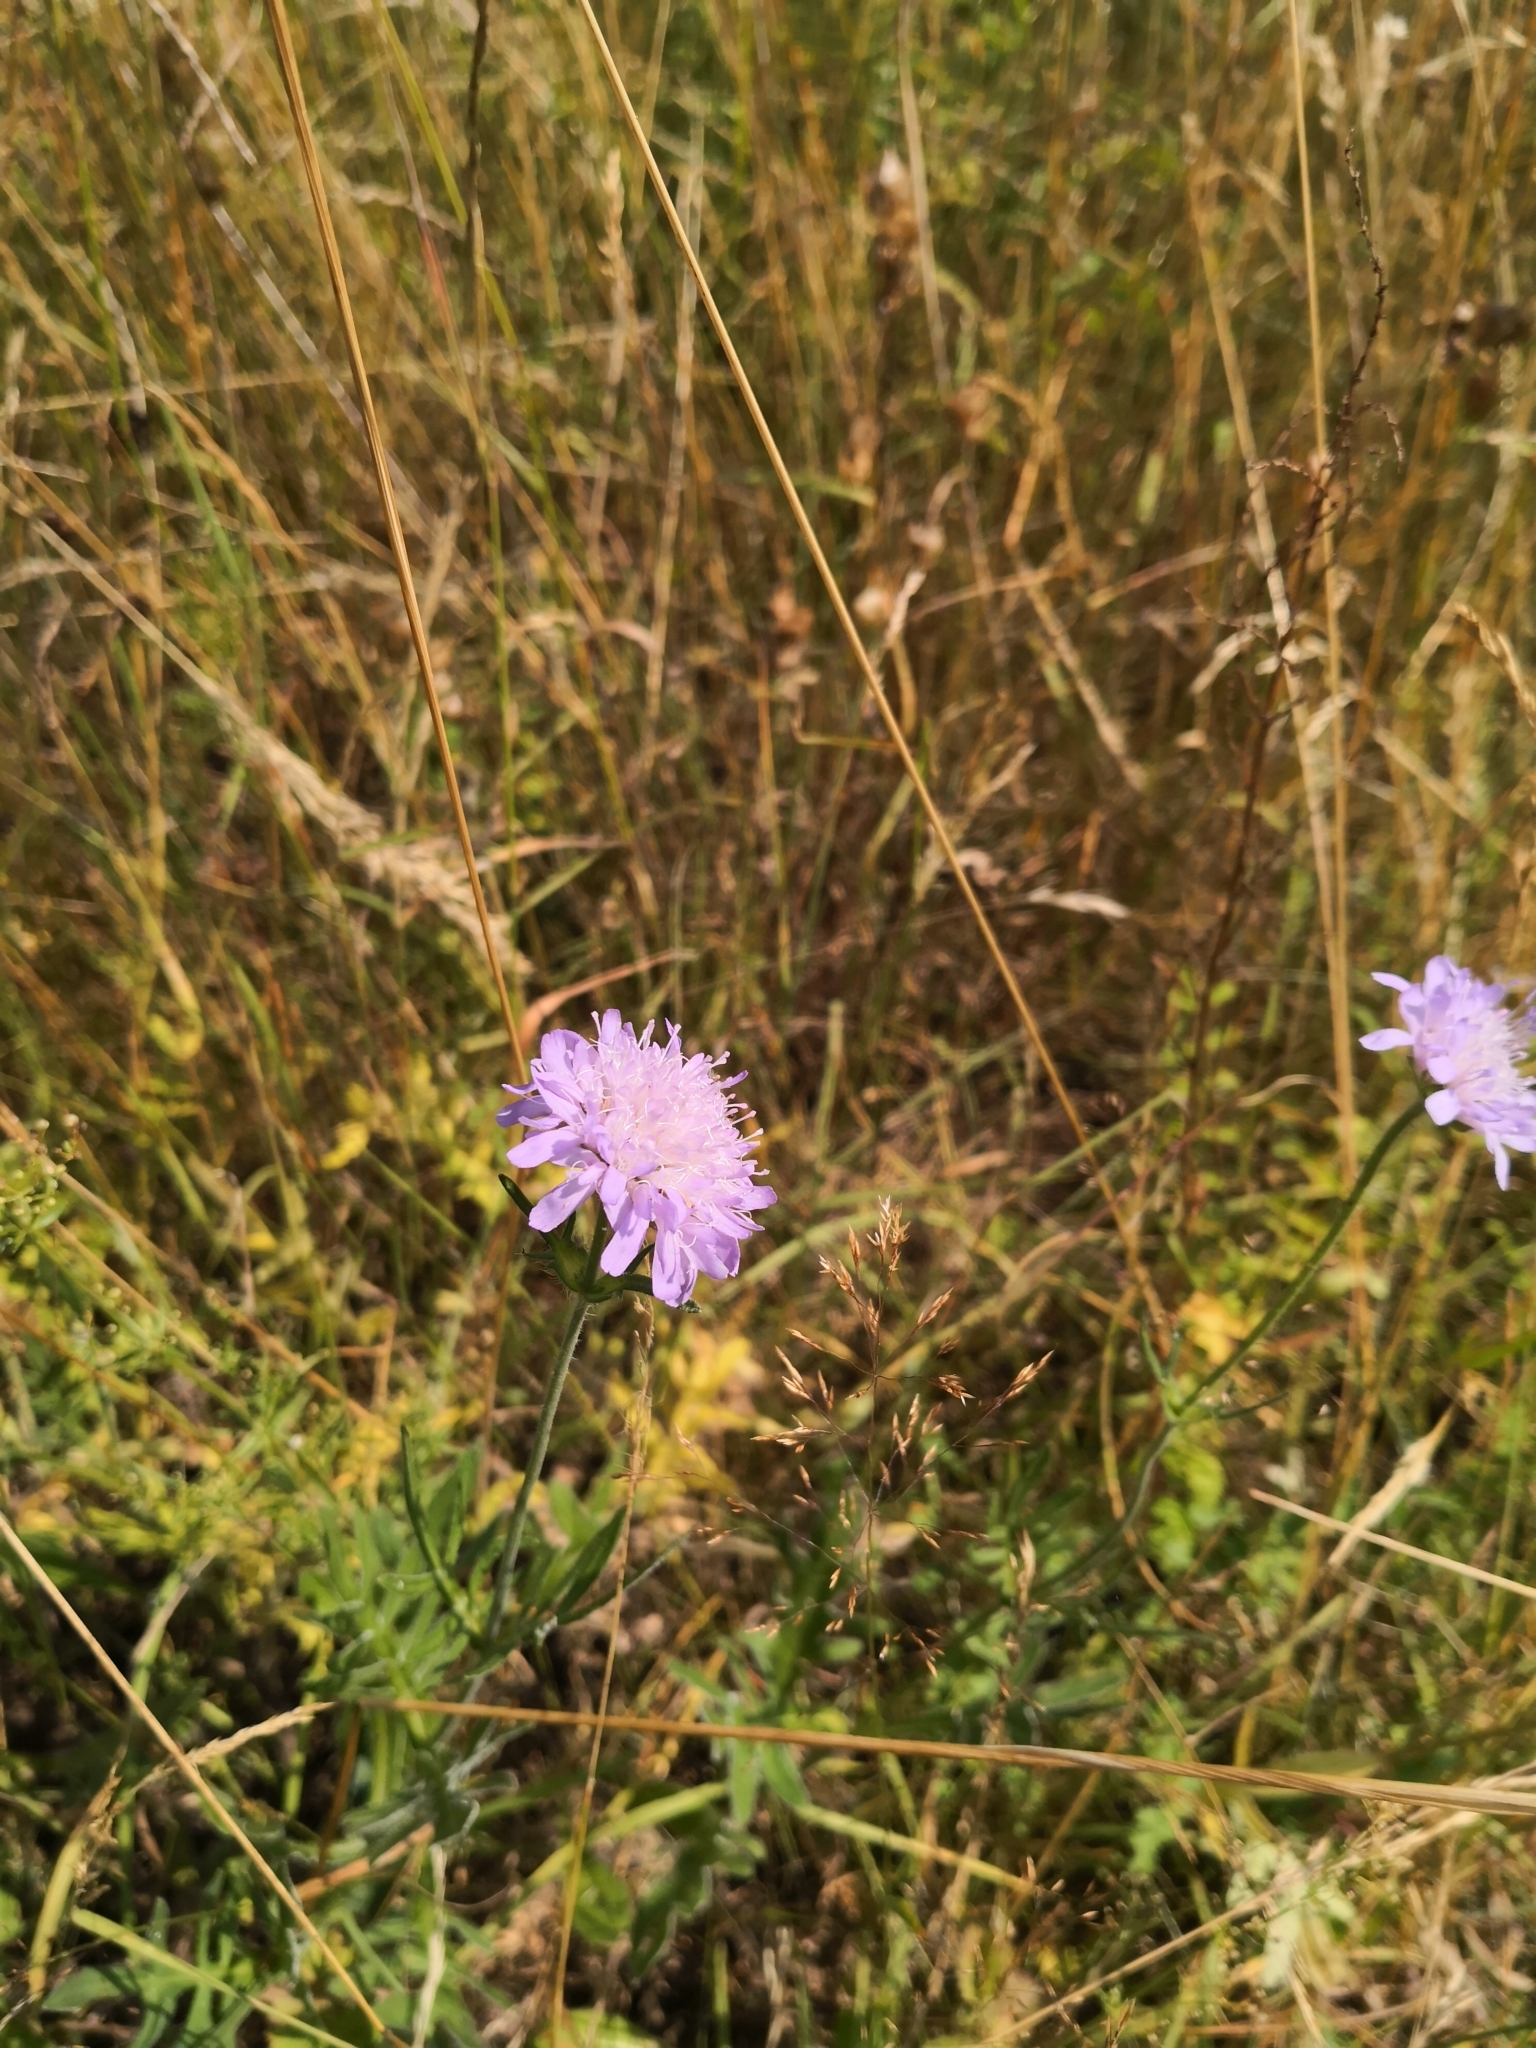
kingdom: Plantae
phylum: Tracheophyta
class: Magnoliopsida
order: Dipsacales
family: Caprifoliaceae
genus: Knautia
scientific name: Knautia arvensis
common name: Field scabiosa
